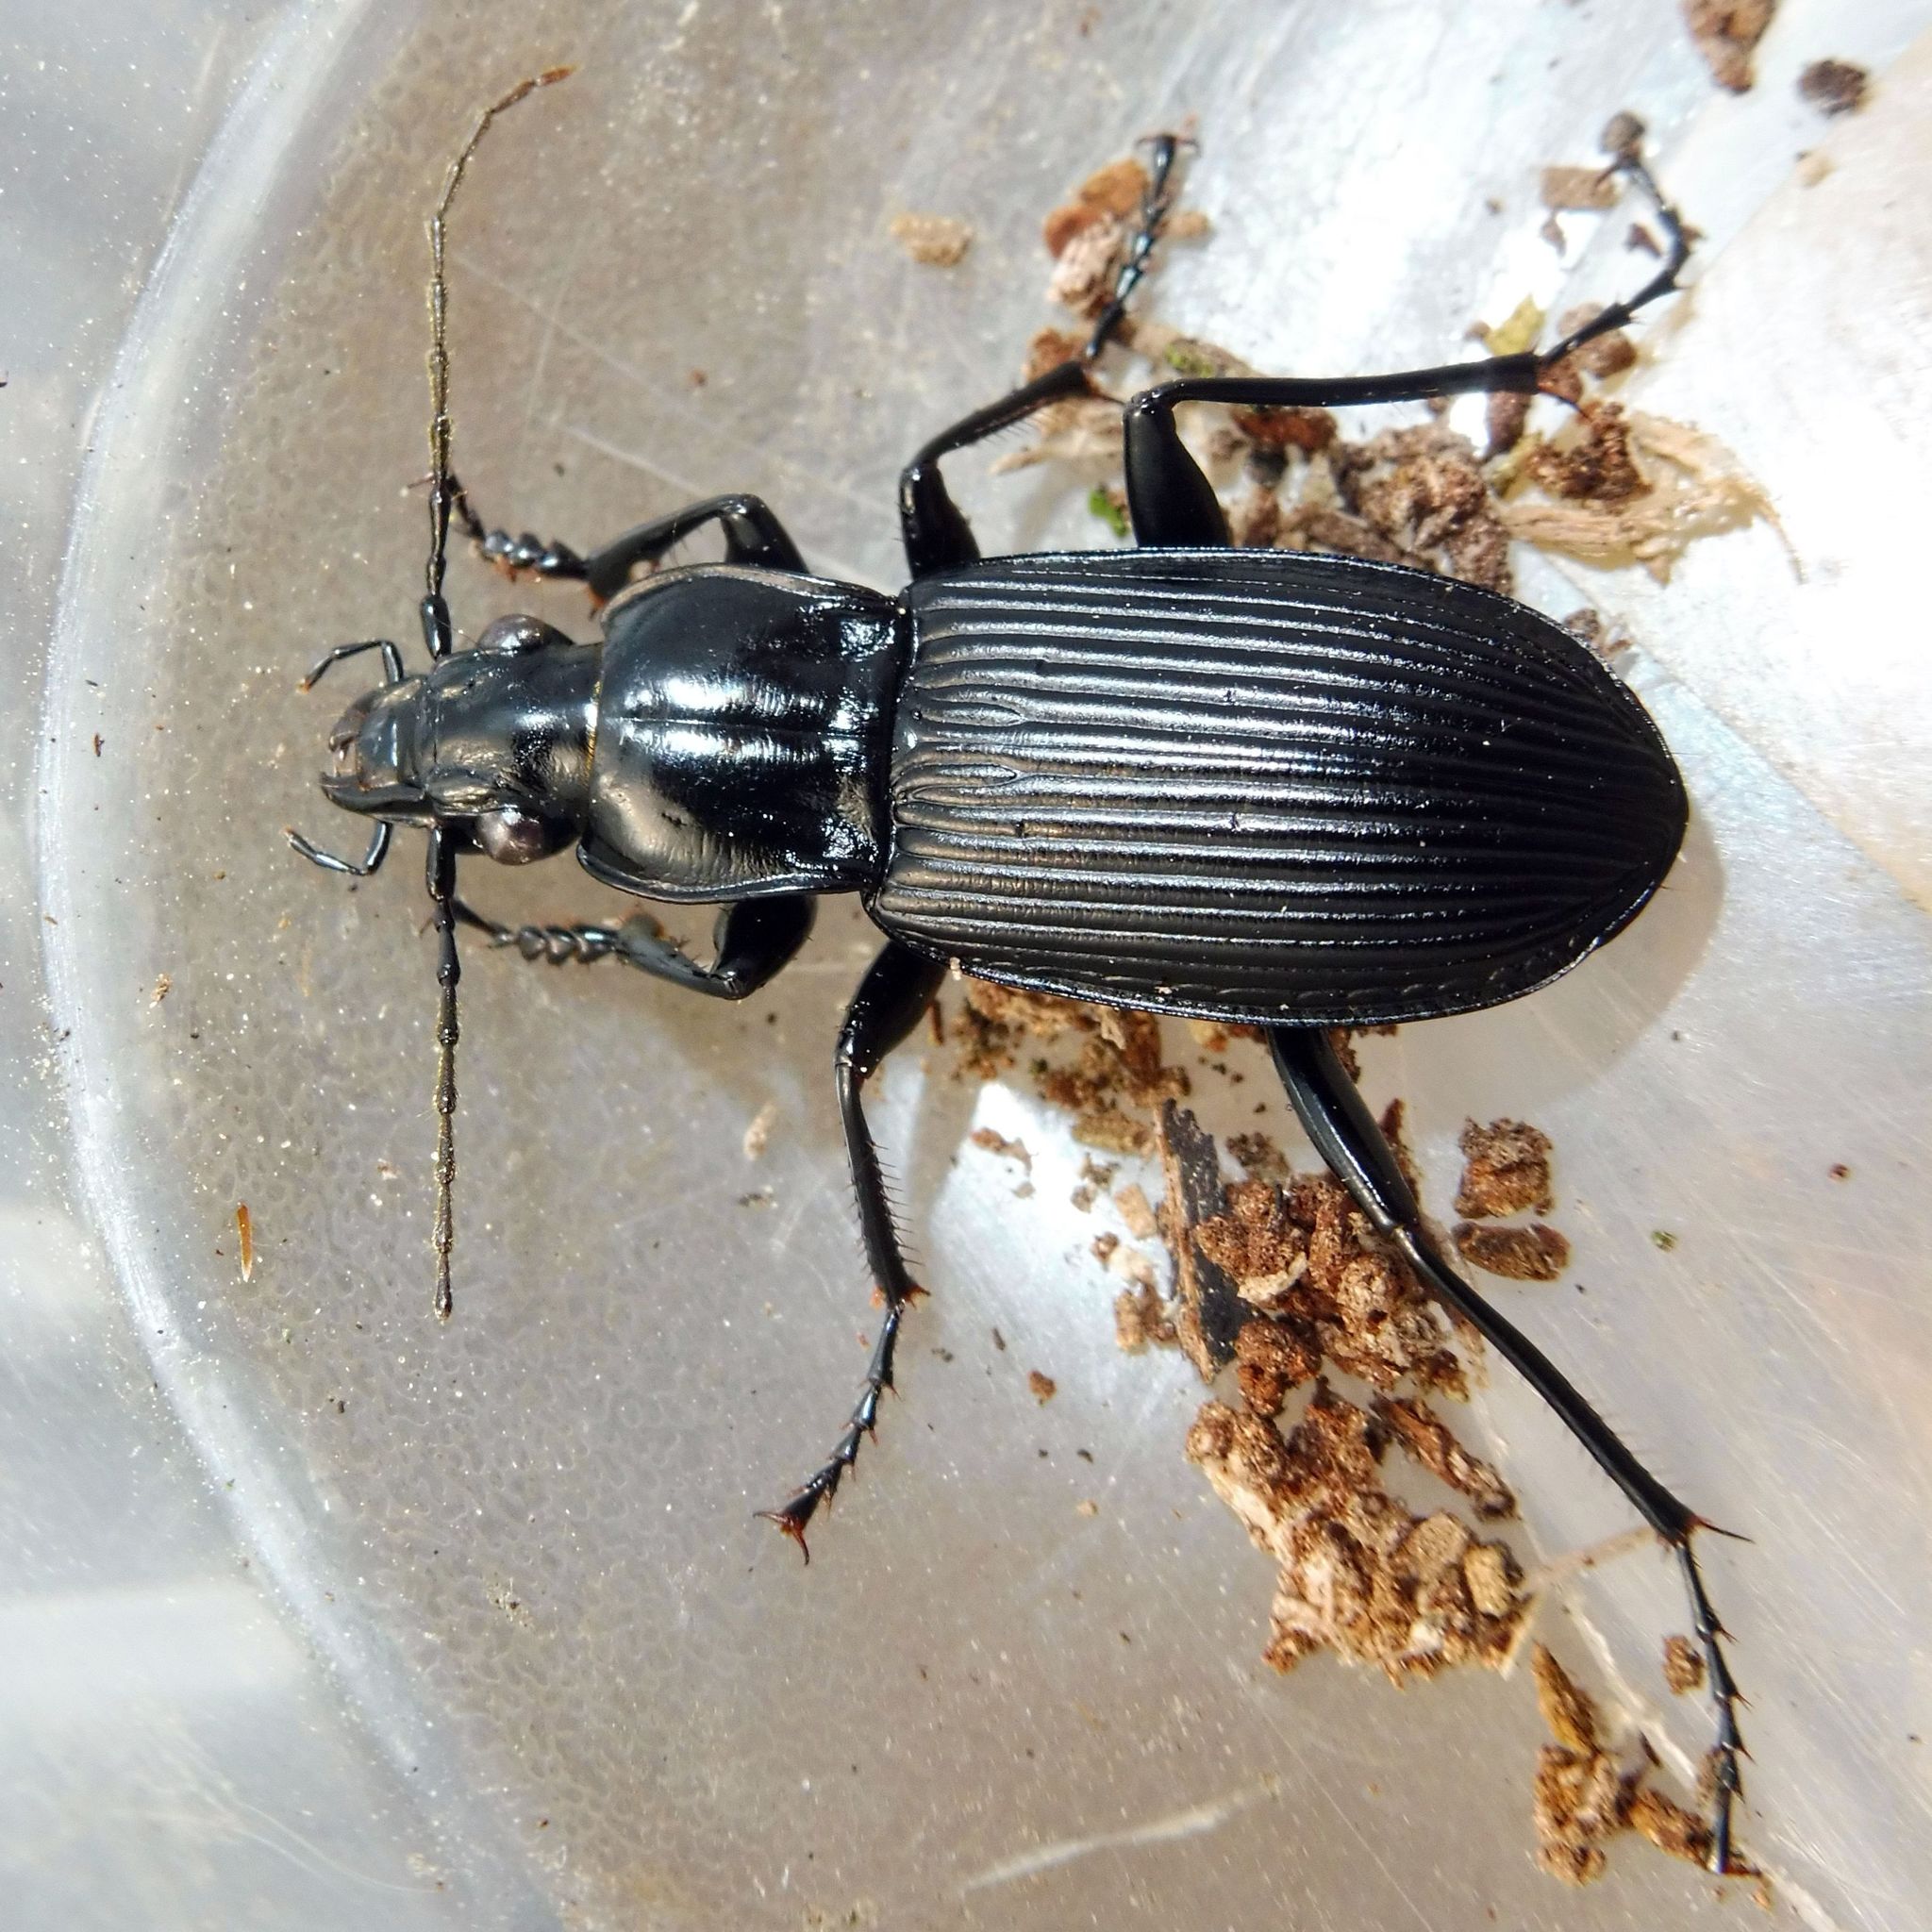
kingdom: Animalia
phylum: Arthropoda
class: Insecta
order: Coleoptera
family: Carabidae
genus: Pterostichus
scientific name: Pterostichus niger
